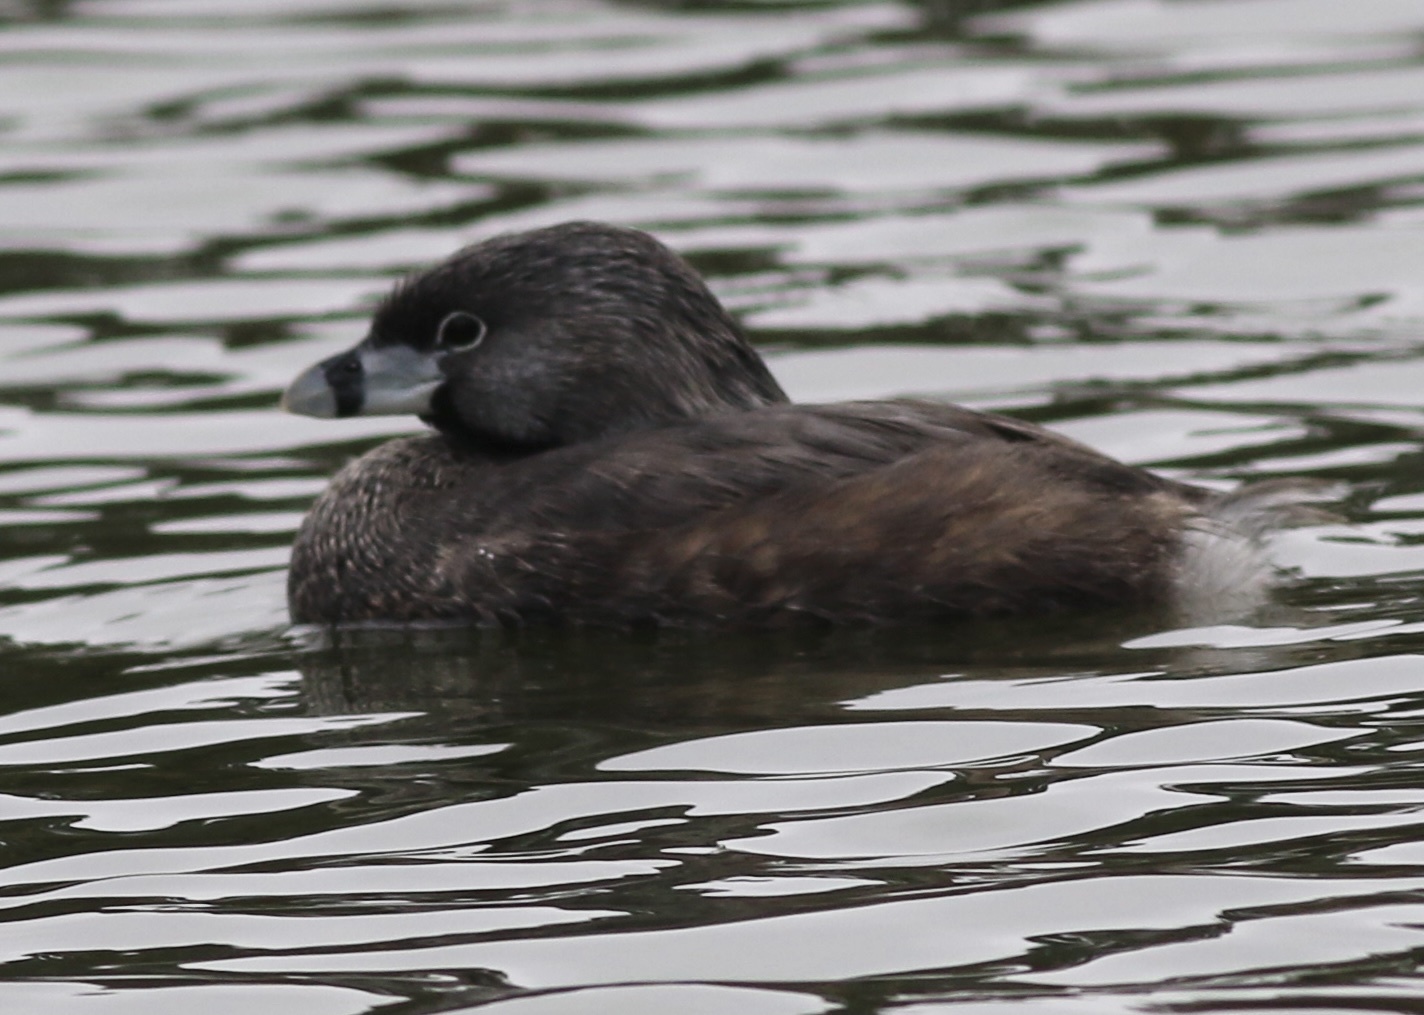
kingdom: Animalia
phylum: Chordata
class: Aves
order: Podicipediformes
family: Podicipedidae
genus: Podilymbus
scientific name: Podilymbus podiceps
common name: Pied-billed grebe
